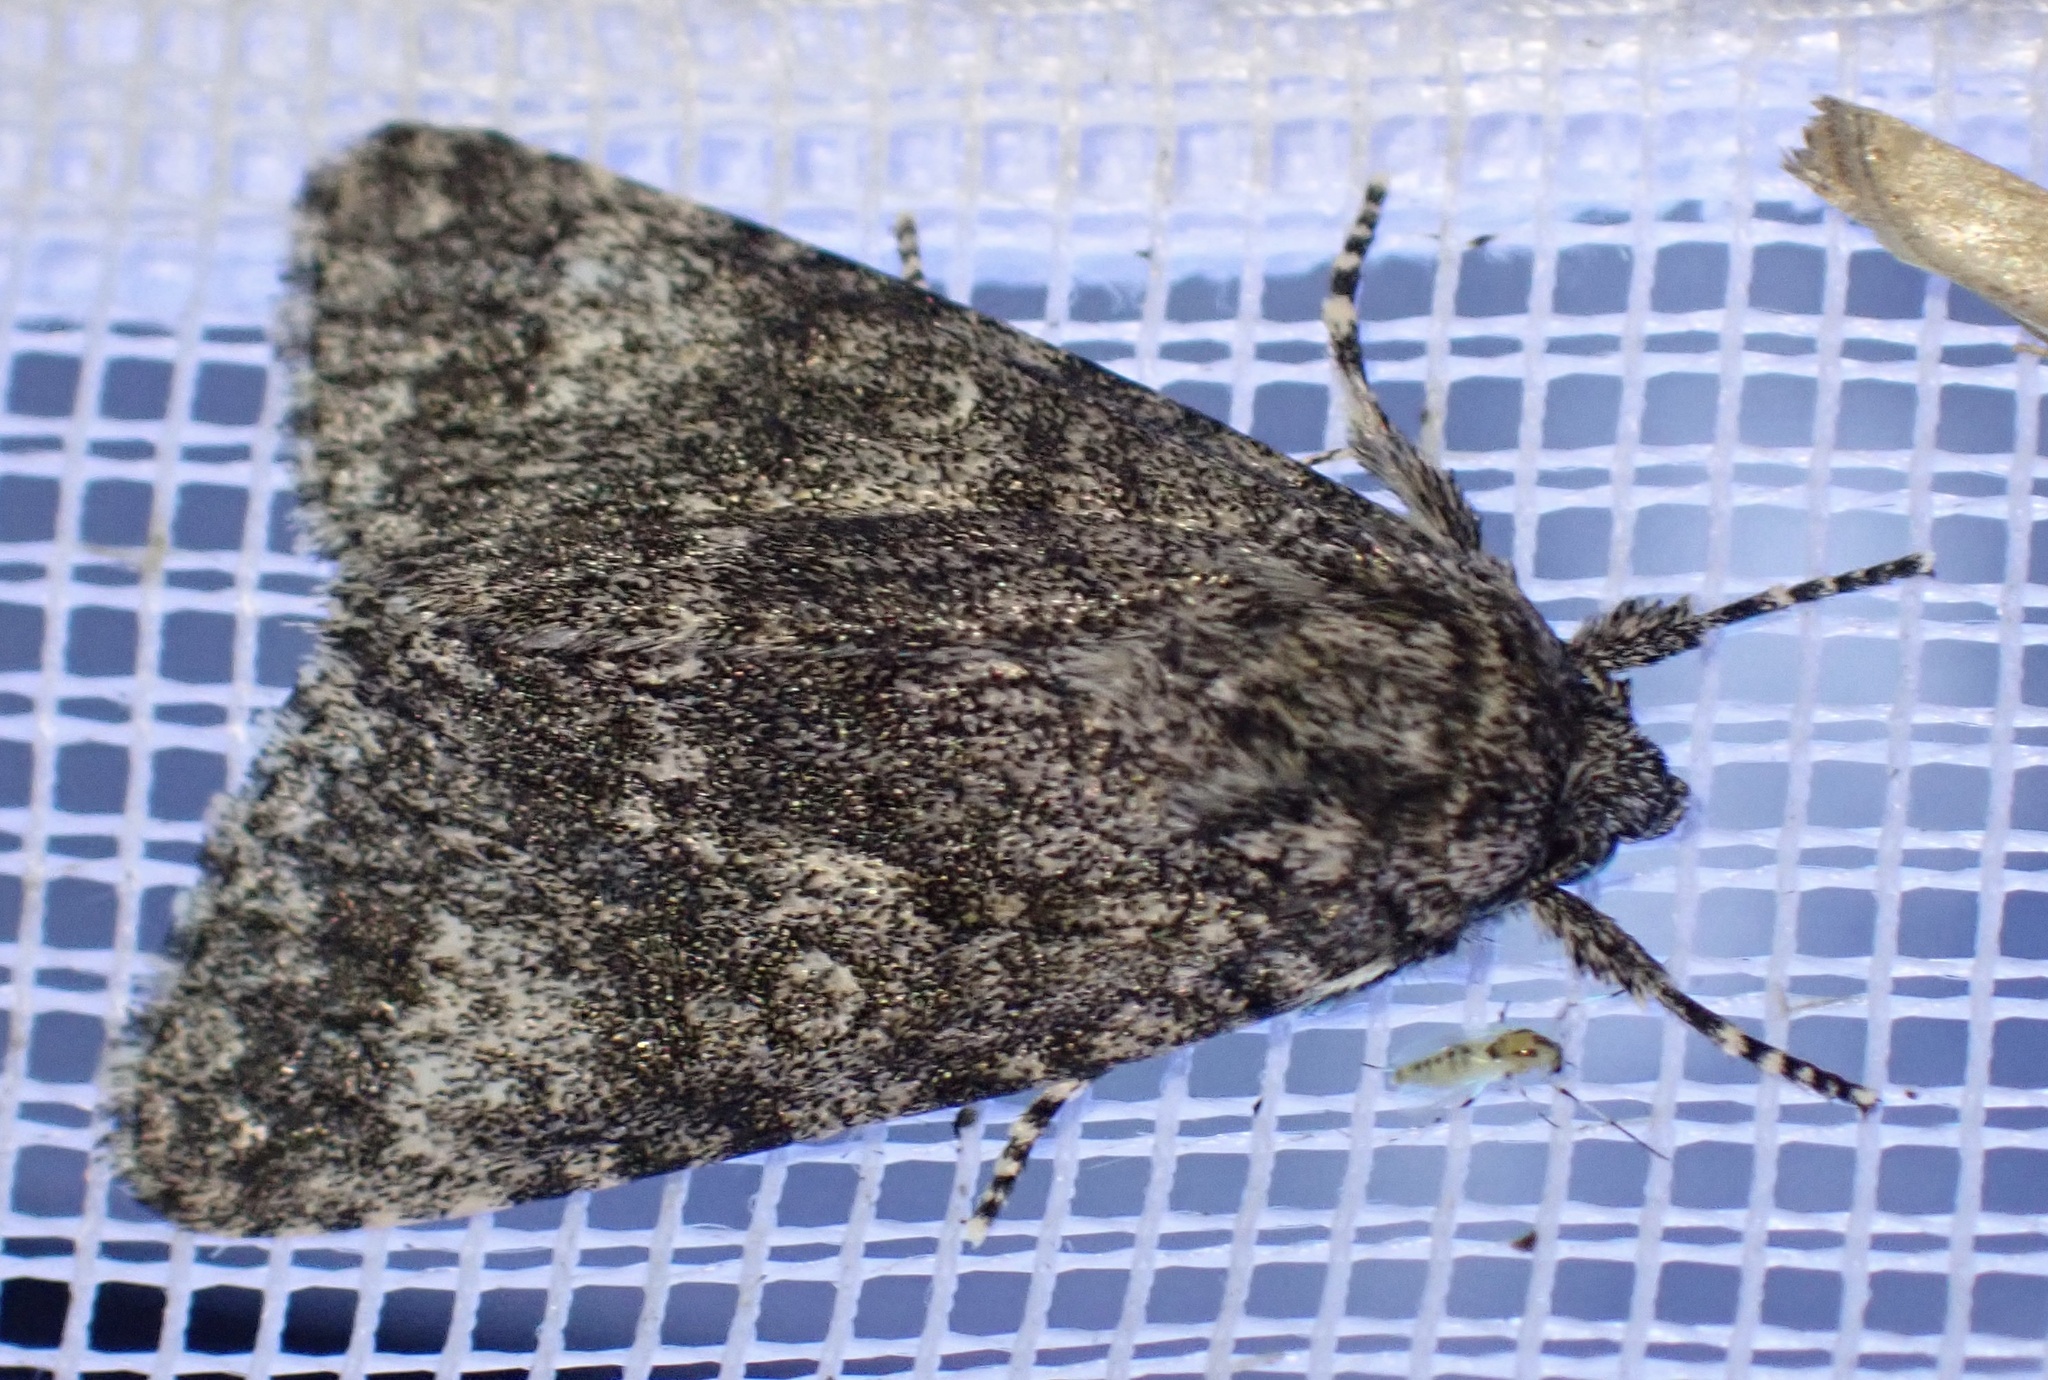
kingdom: Animalia
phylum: Arthropoda
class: Insecta
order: Lepidoptera
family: Noctuidae
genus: Acronicta
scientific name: Acronicta megacephala
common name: Poplar grey
